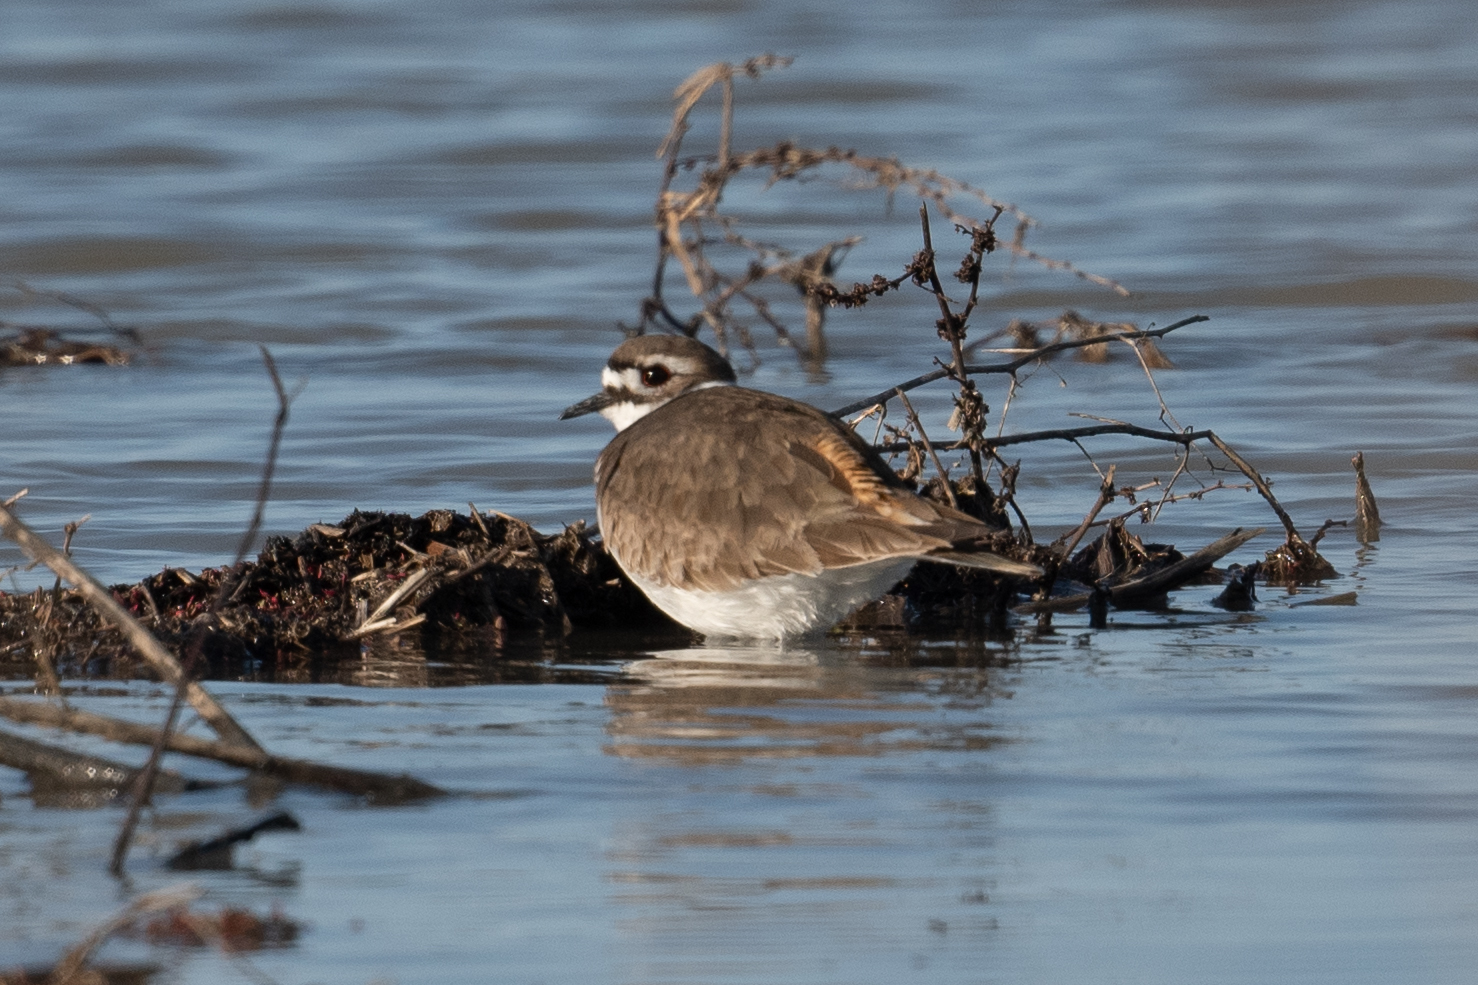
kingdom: Animalia
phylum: Chordata
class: Aves
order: Charadriiformes
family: Charadriidae
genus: Charadrius
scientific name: Charadrius vociferus
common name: Killdeer
